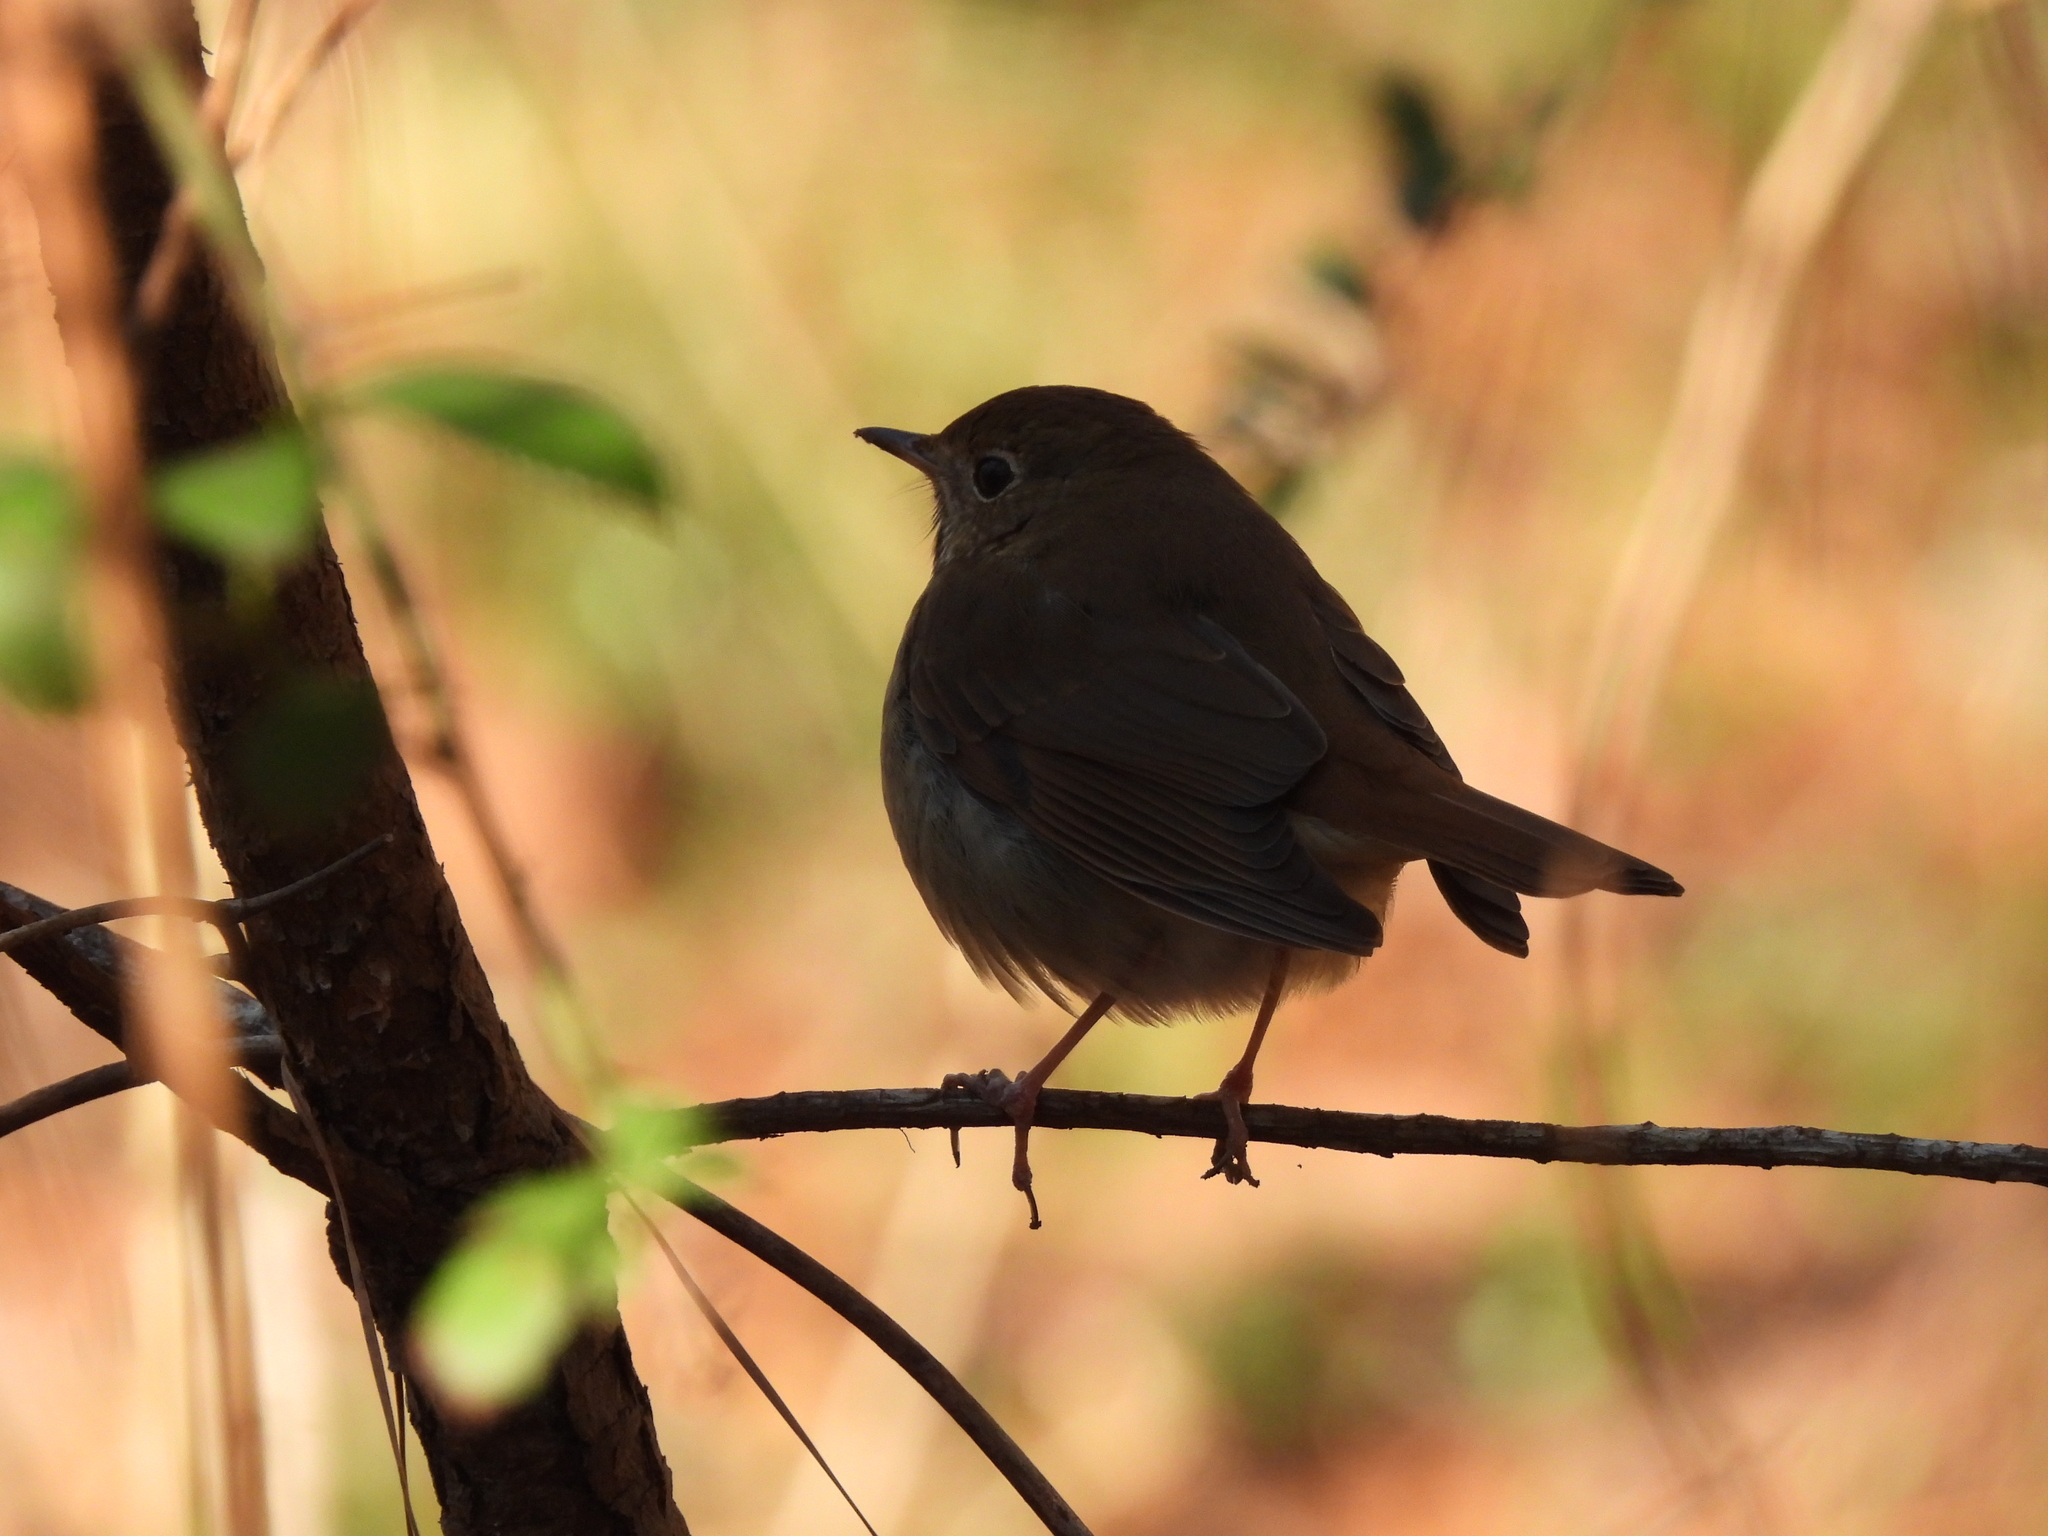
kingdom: Animalia
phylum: Chordata
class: Aves
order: Passeriformes
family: Turdidae
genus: Catharus
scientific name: Catharus guttatus
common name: Hermit thrush
